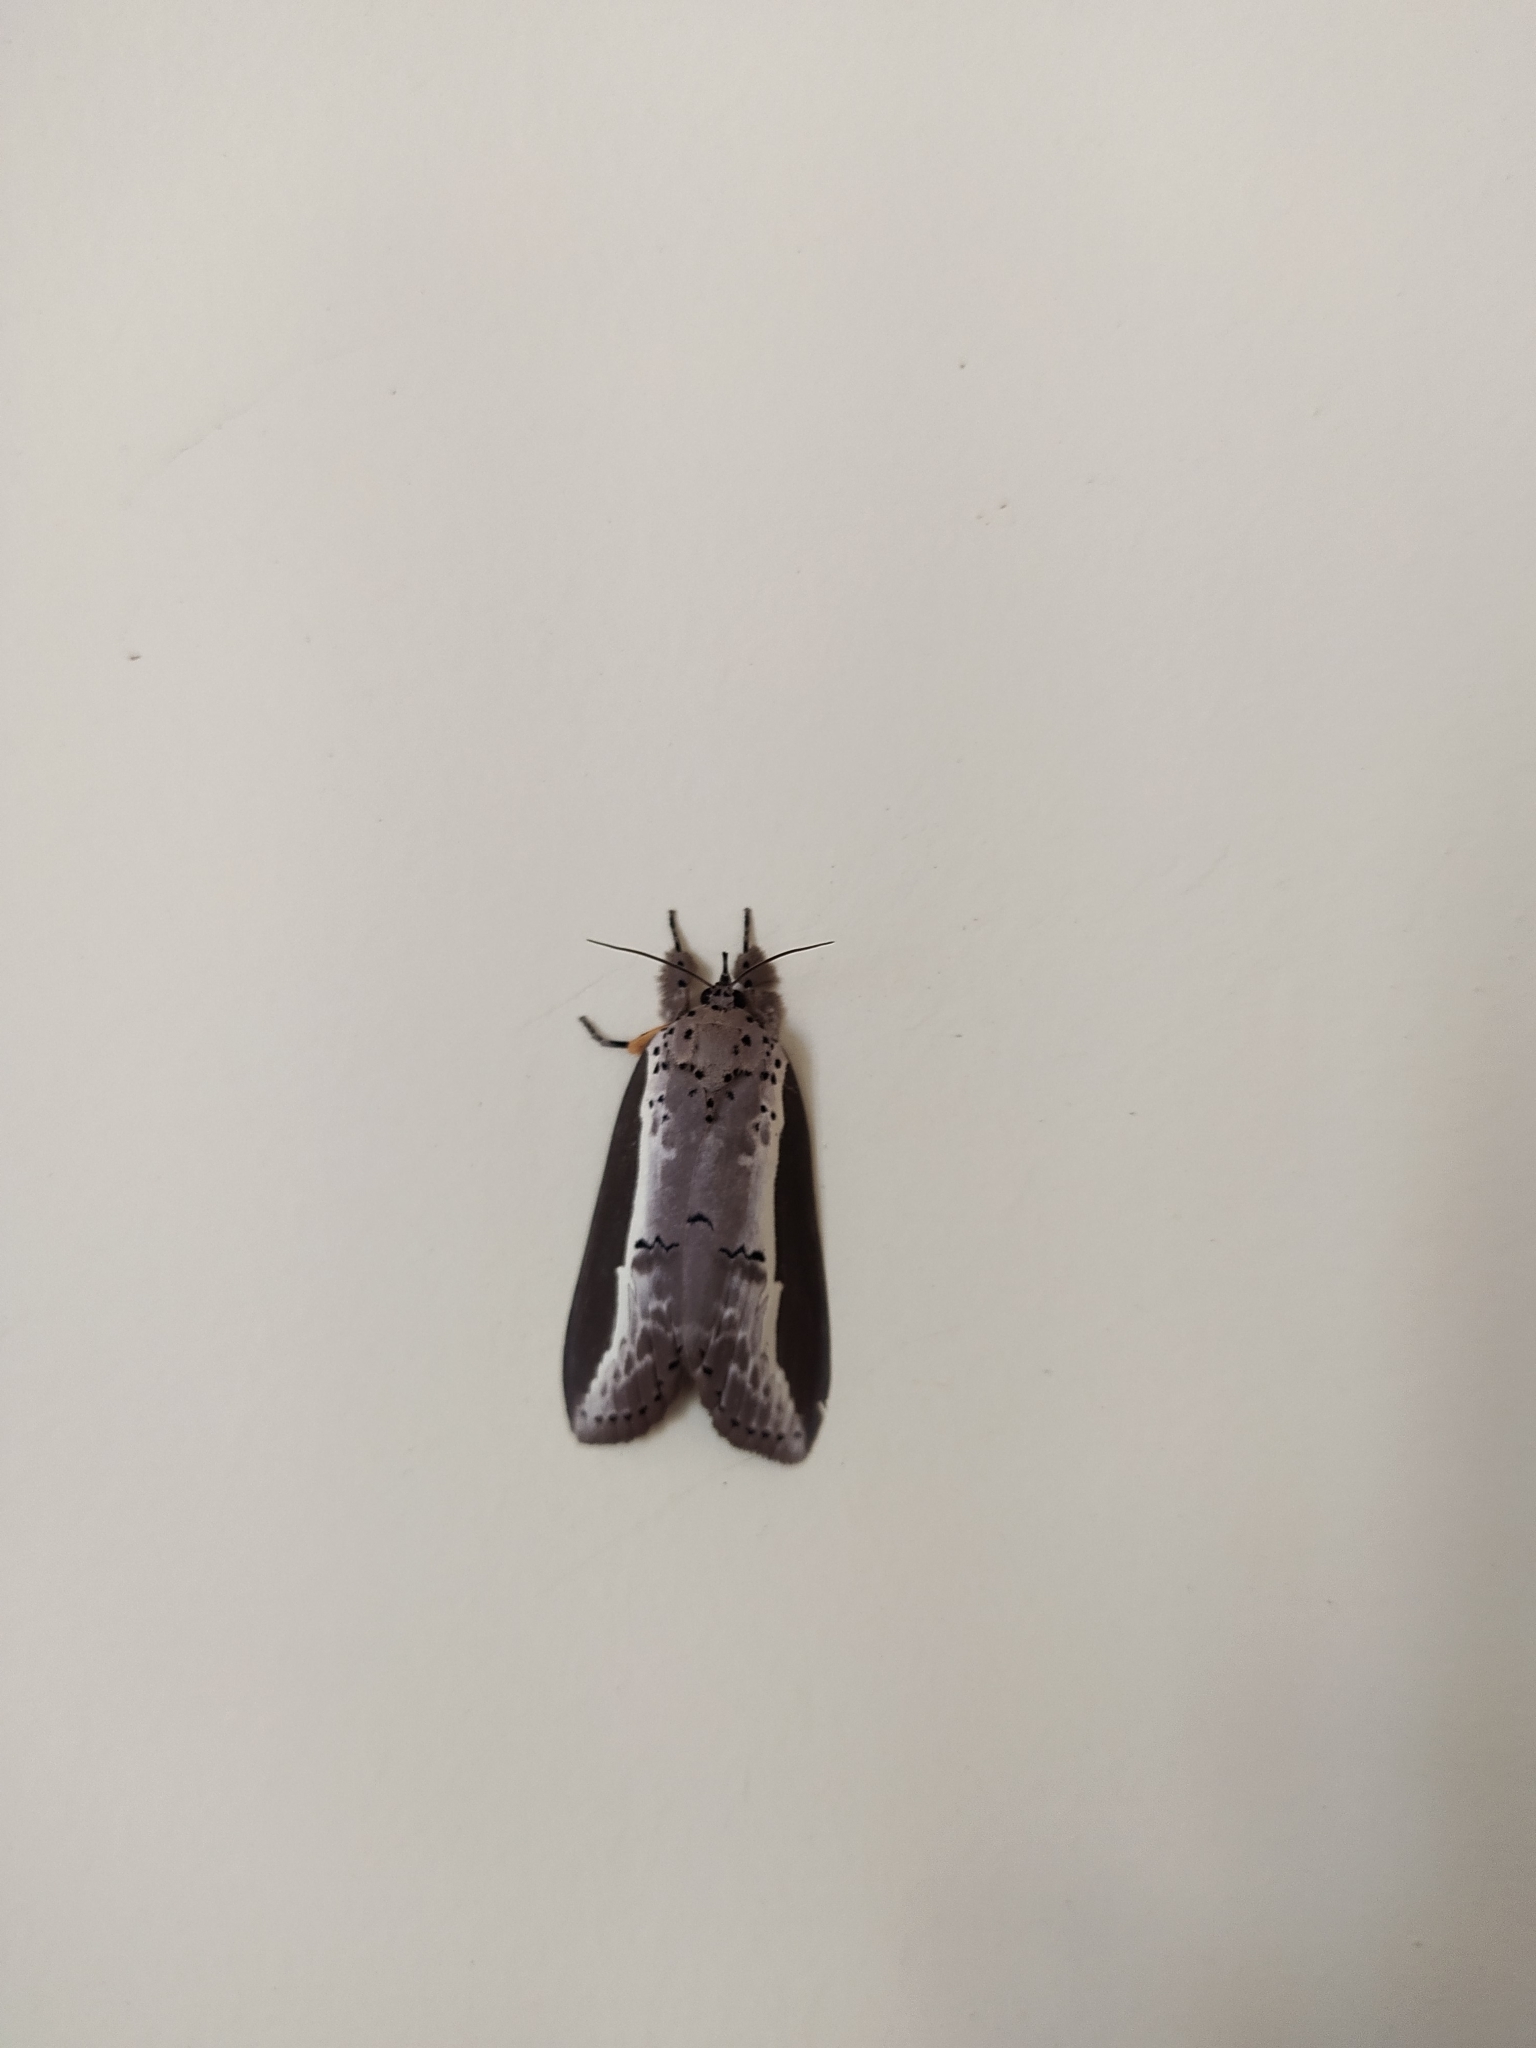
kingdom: Animalia
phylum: Arthropoda
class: Insecta
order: Lepidoptera
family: Nolidae
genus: Eligma
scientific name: Eligma narcissus
